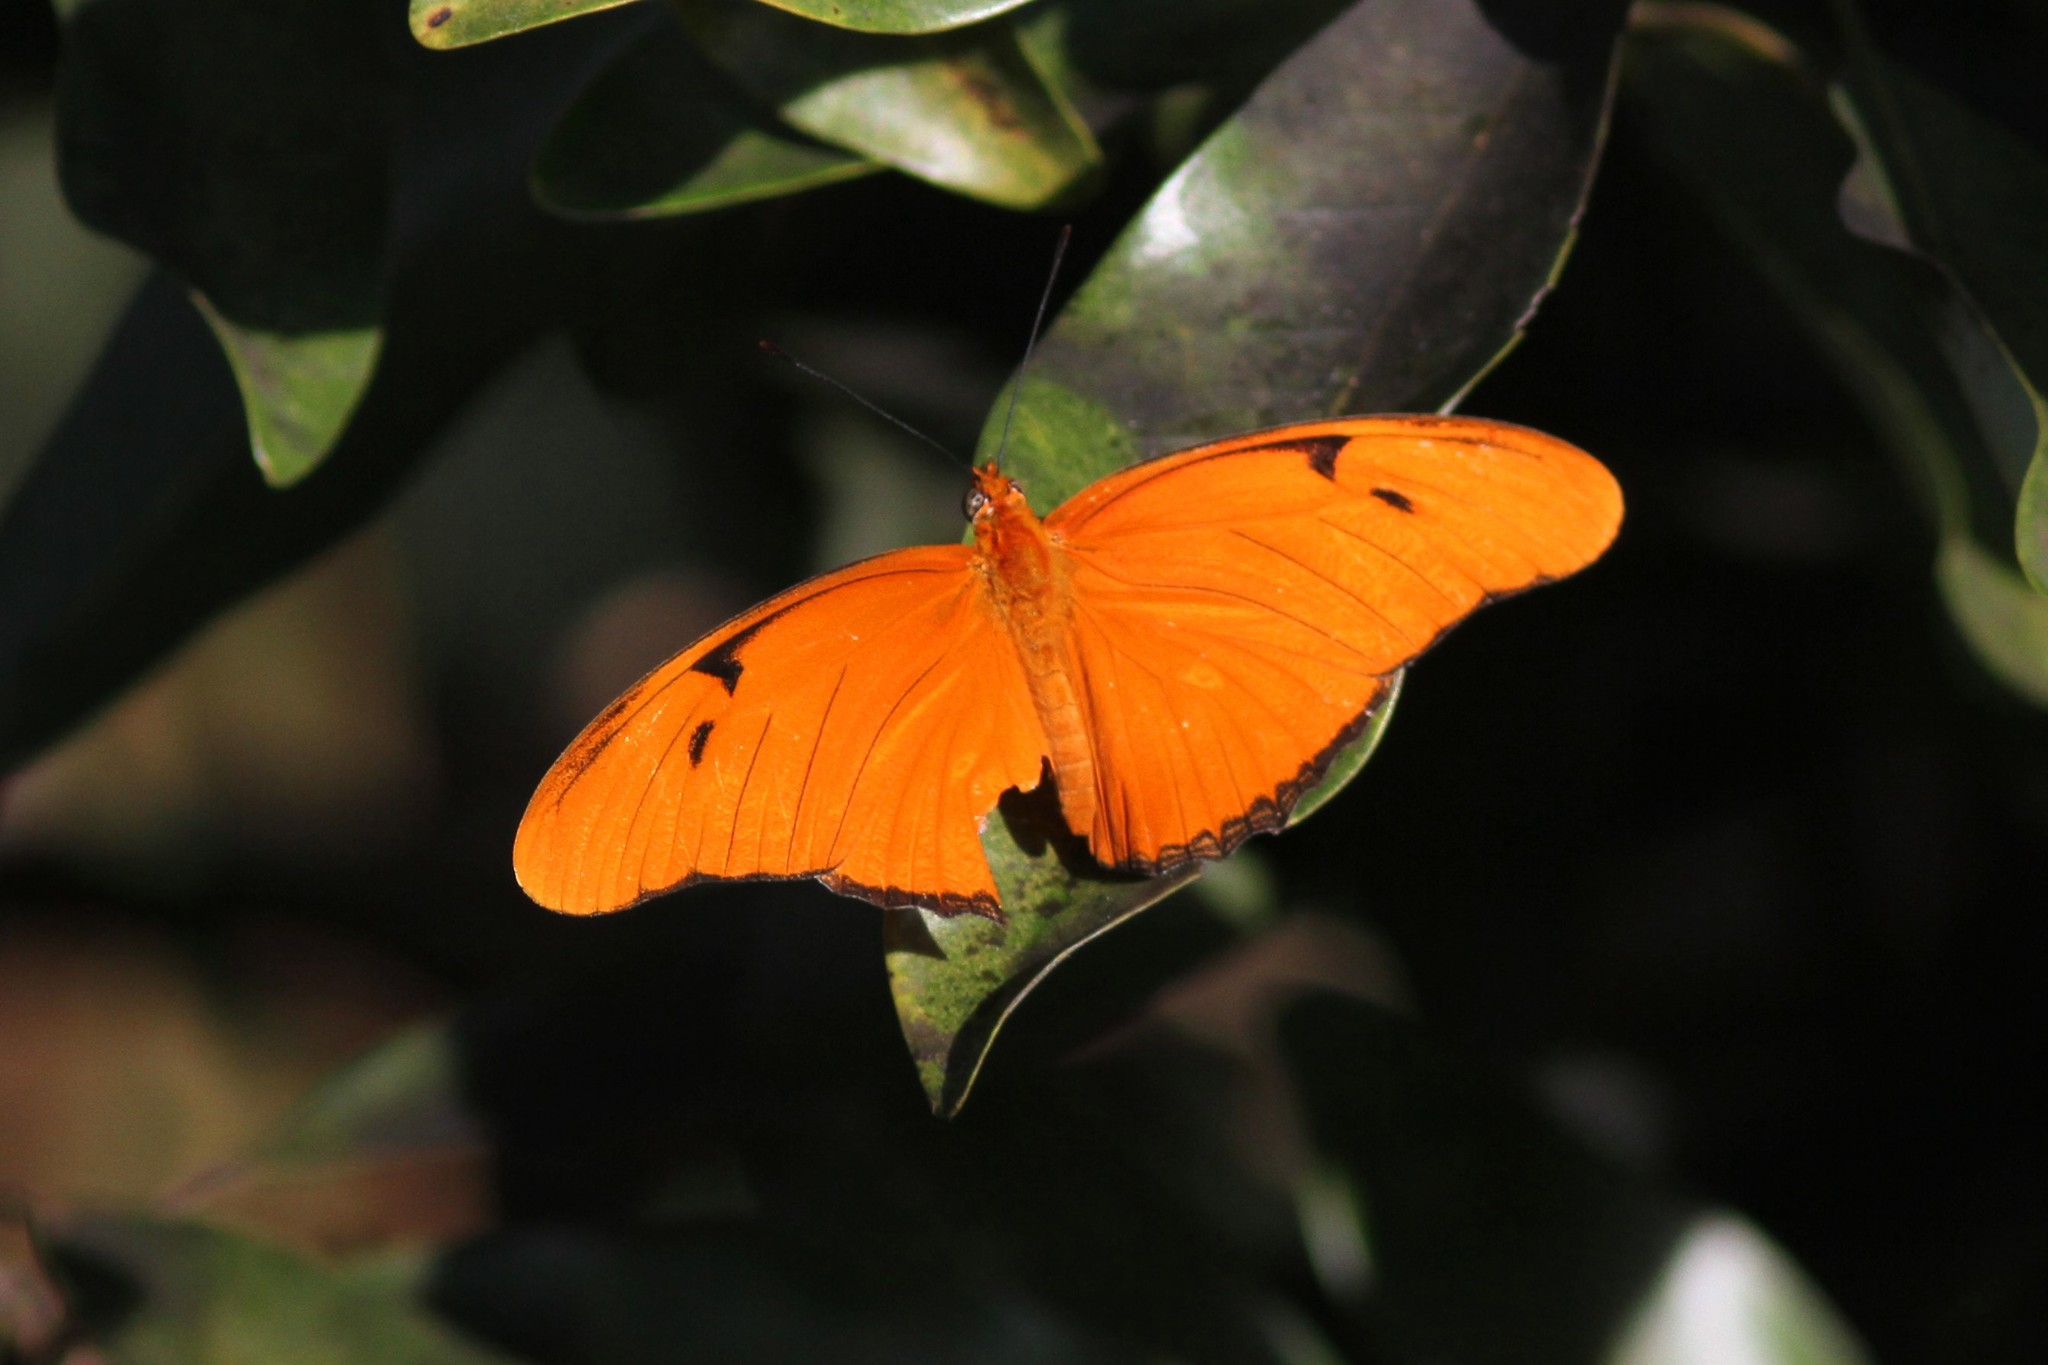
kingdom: Animalia
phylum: Arthropoda
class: Insecta
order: Lepidoptera
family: Nymphalidae
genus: Dryas
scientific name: Dryas iulia
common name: Flambeau
